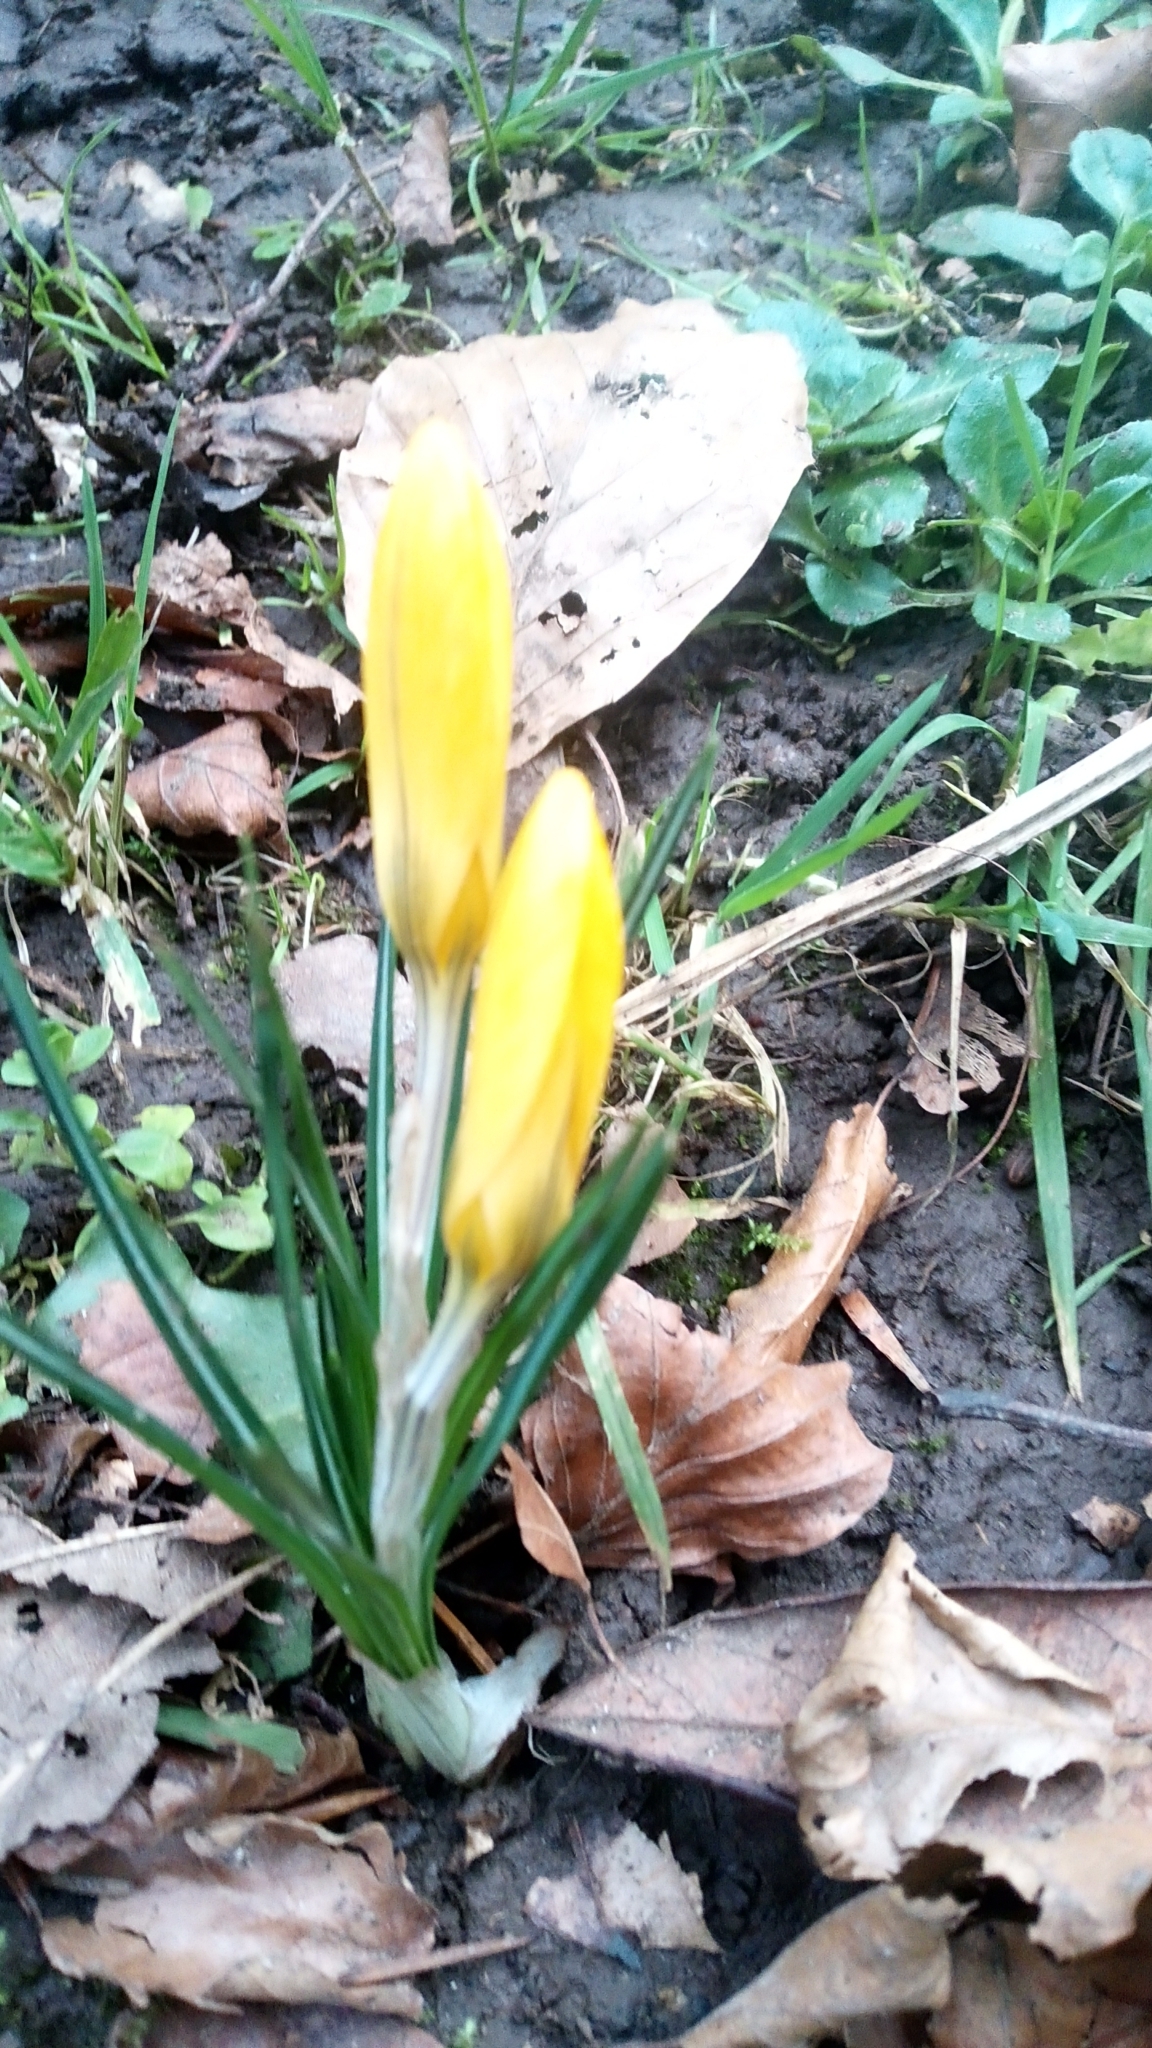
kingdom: Plantae
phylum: Tracheophyta
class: Liliopsida
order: Asparagales
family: Iridaceae
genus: Crocus
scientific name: Crocus luteus
